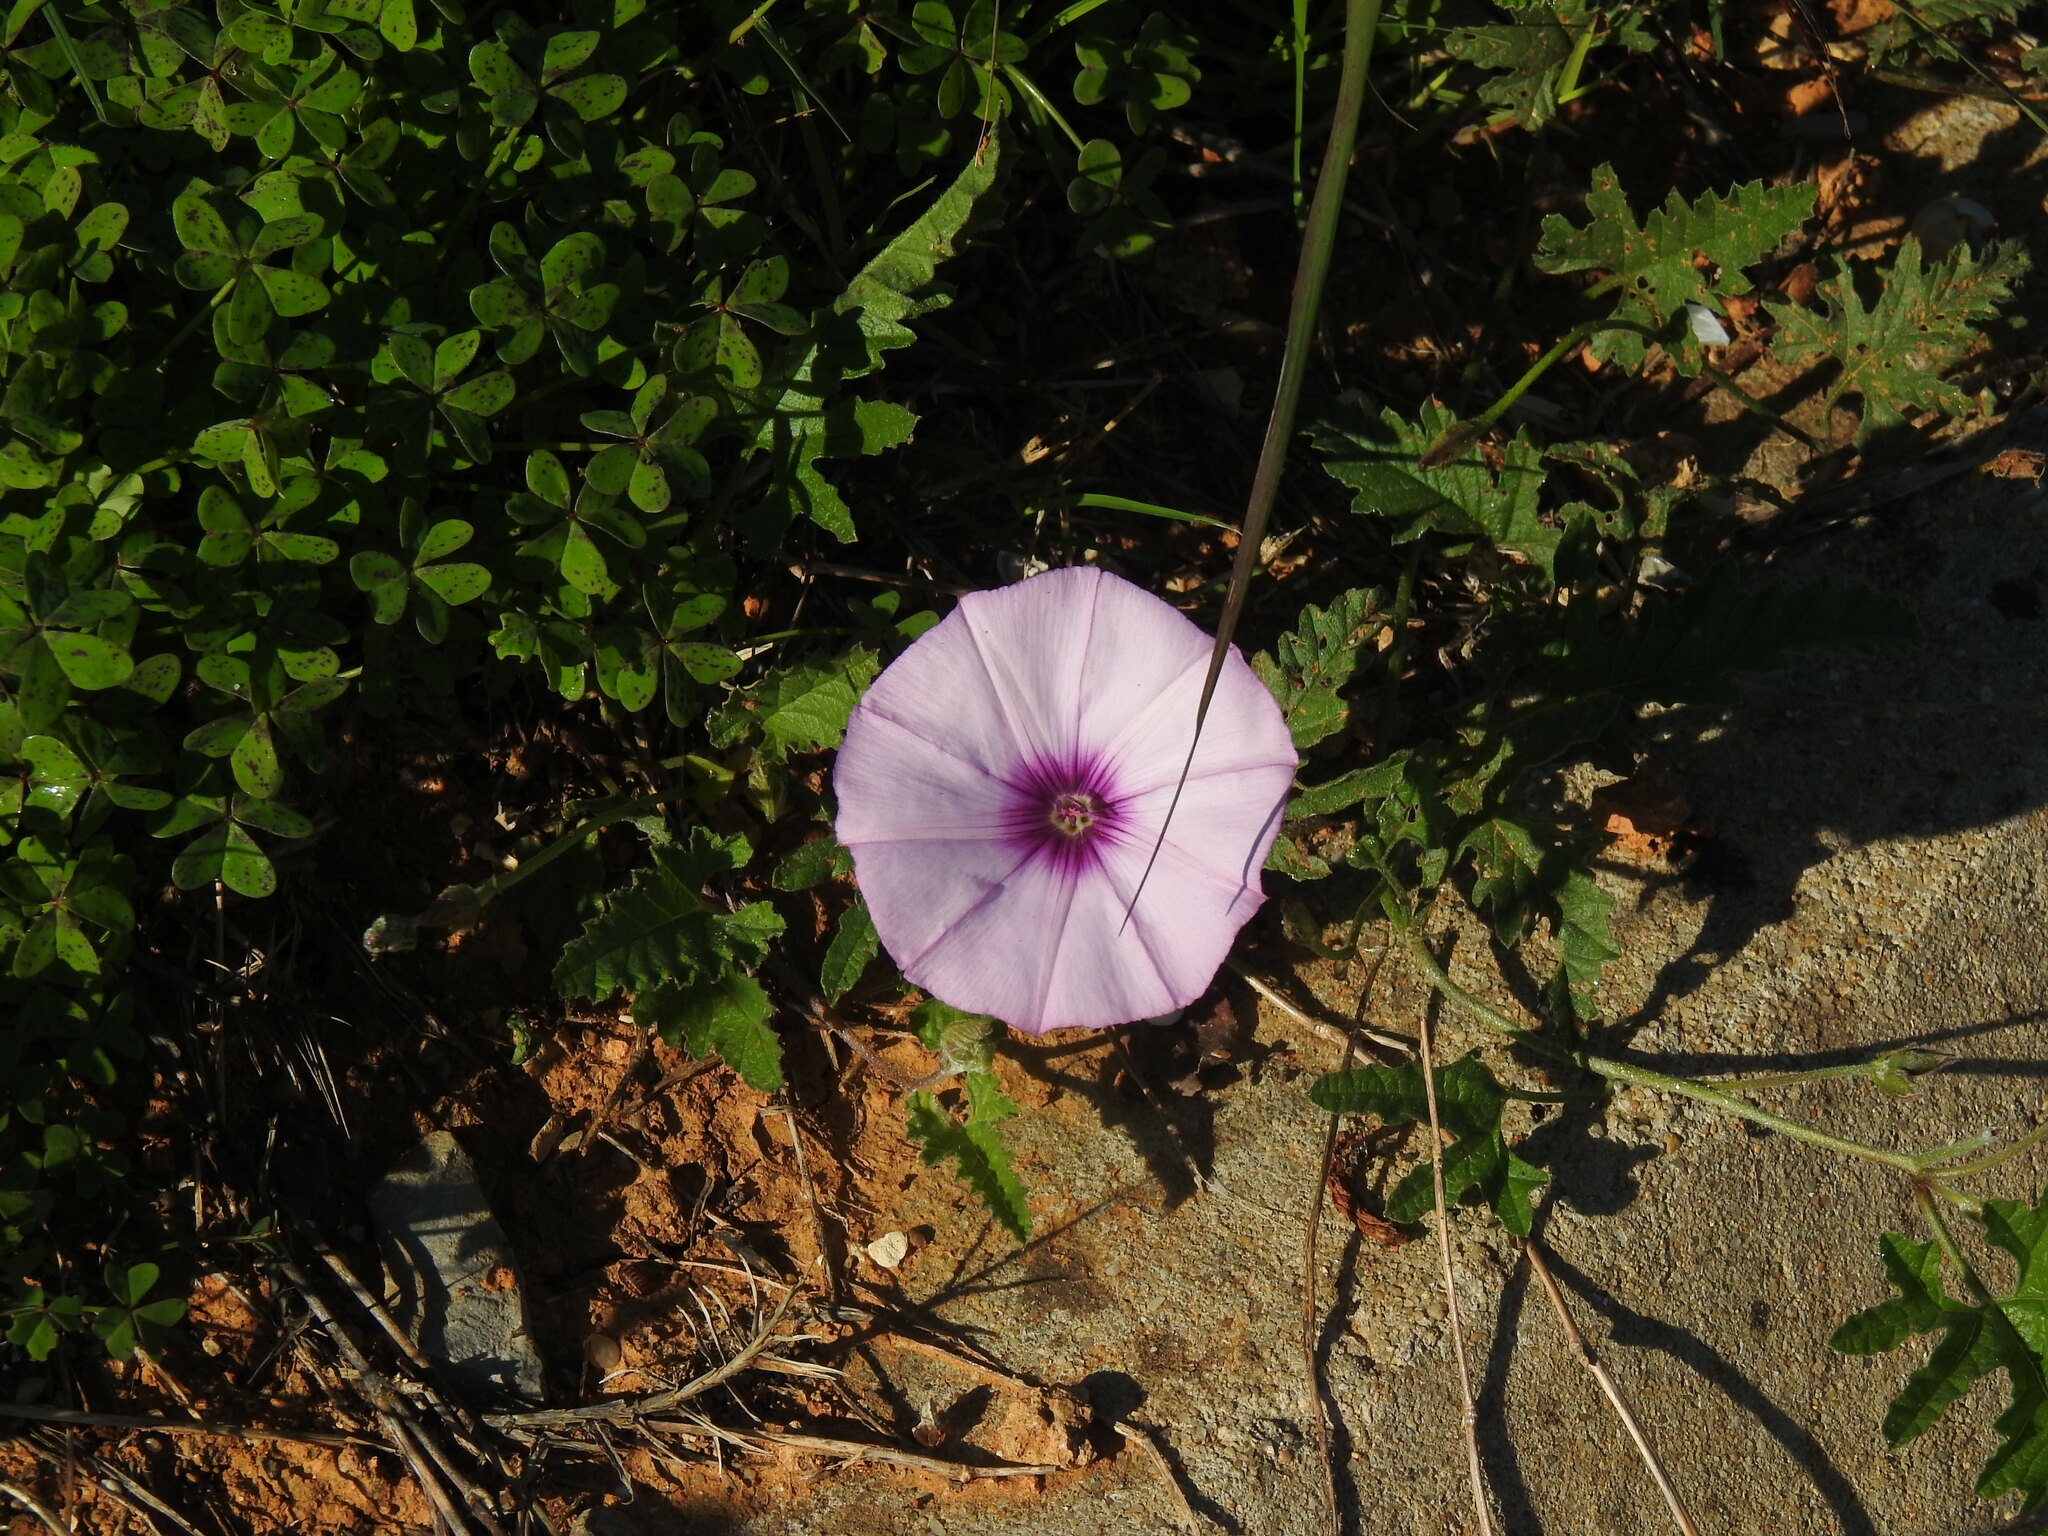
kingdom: Plantae
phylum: Tracheophyta
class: Magnoliopsida
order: Solanales
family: Convolvulaceae
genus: Convolvulus
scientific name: Convolvulus althaeoides
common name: Mallow bindweed
